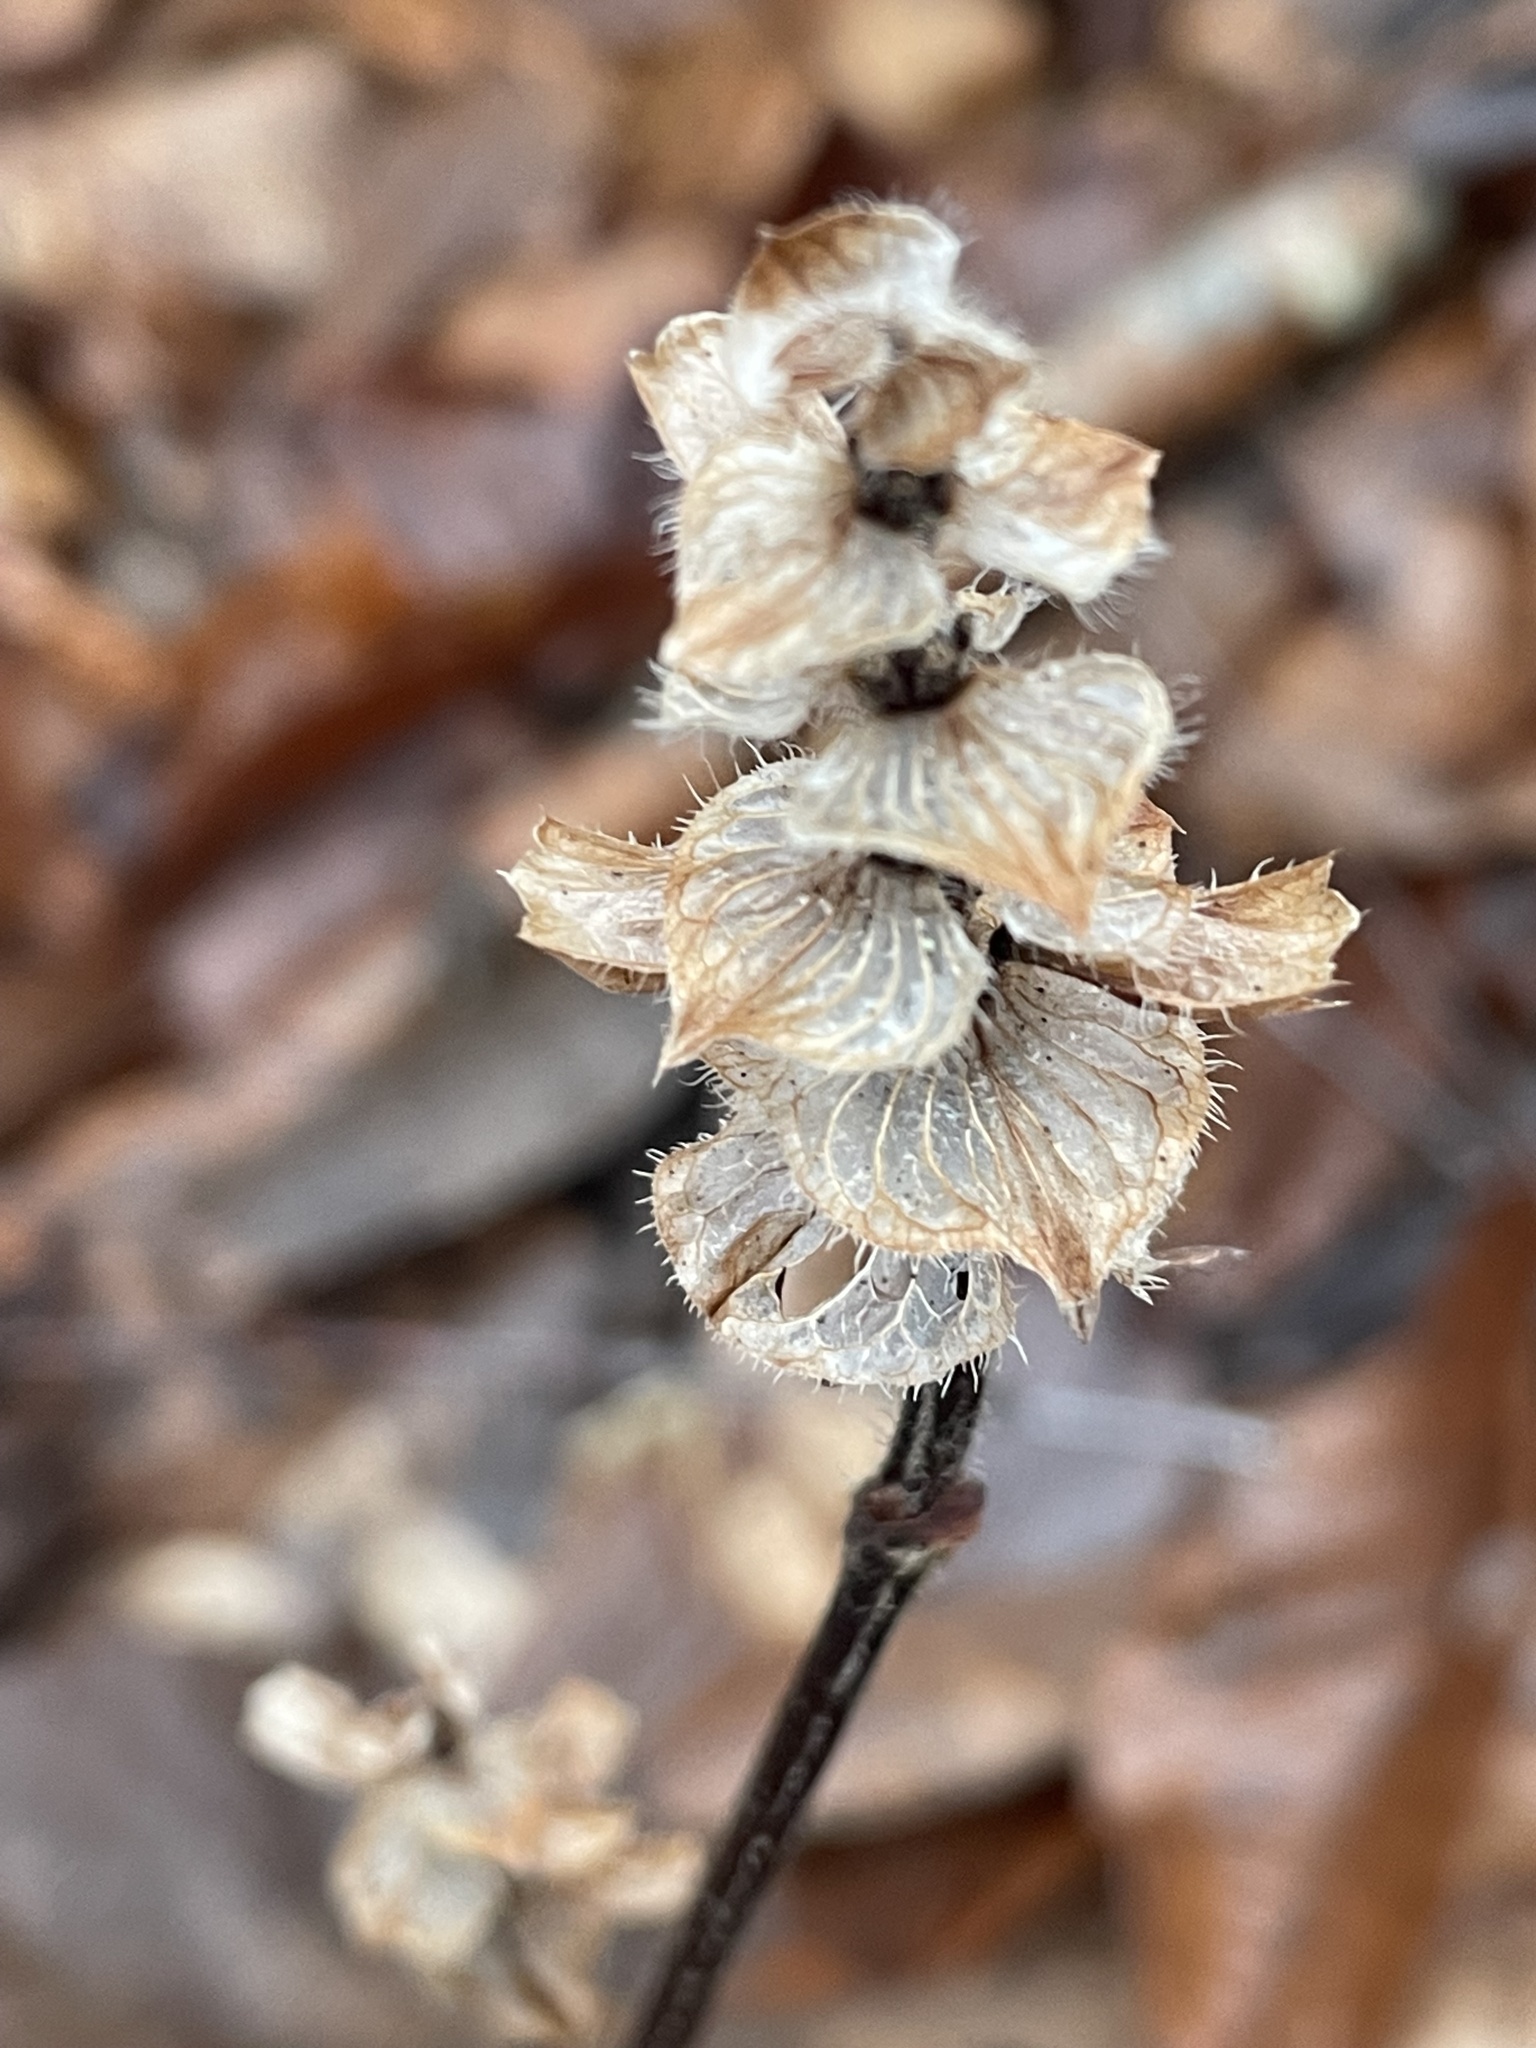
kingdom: Plantae
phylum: Tracheophyta
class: Magnoliopsida
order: Lamiales
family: Lamiaceae
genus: Prunella
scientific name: Prunella vulgaris
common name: Heal-all
